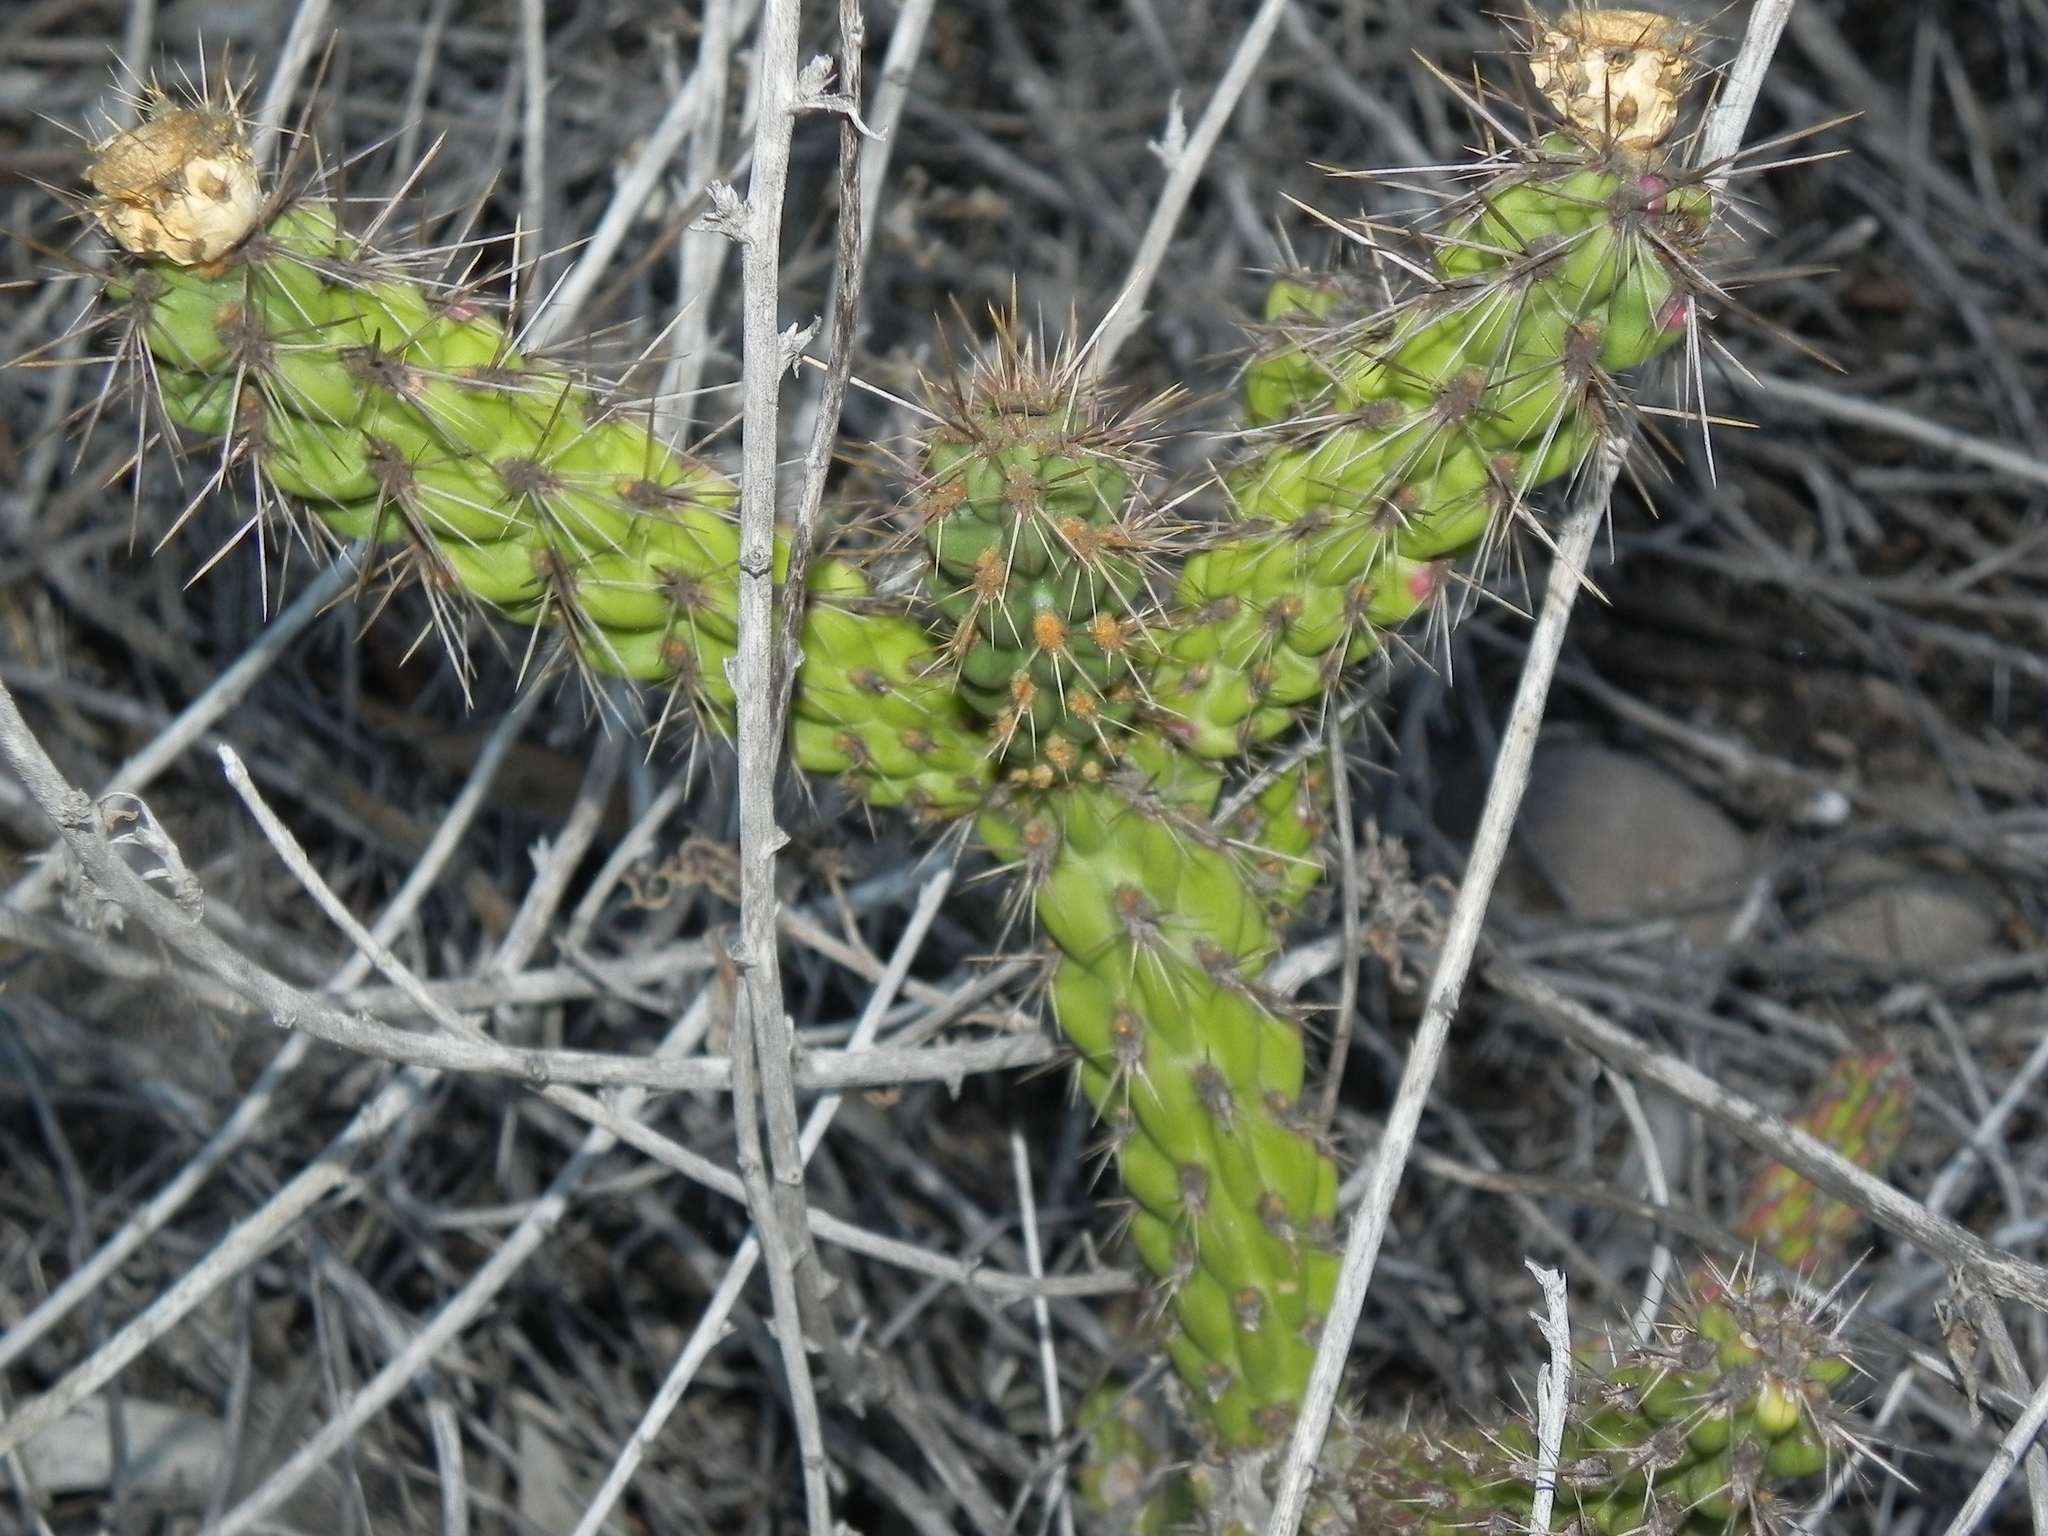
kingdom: Plantae
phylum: Tracheophyta
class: Magnoliopsida
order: Caryophyllales
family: Cactaceae
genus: Cylindropuntia
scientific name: Cylindropuntia californica
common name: Snake cholla
